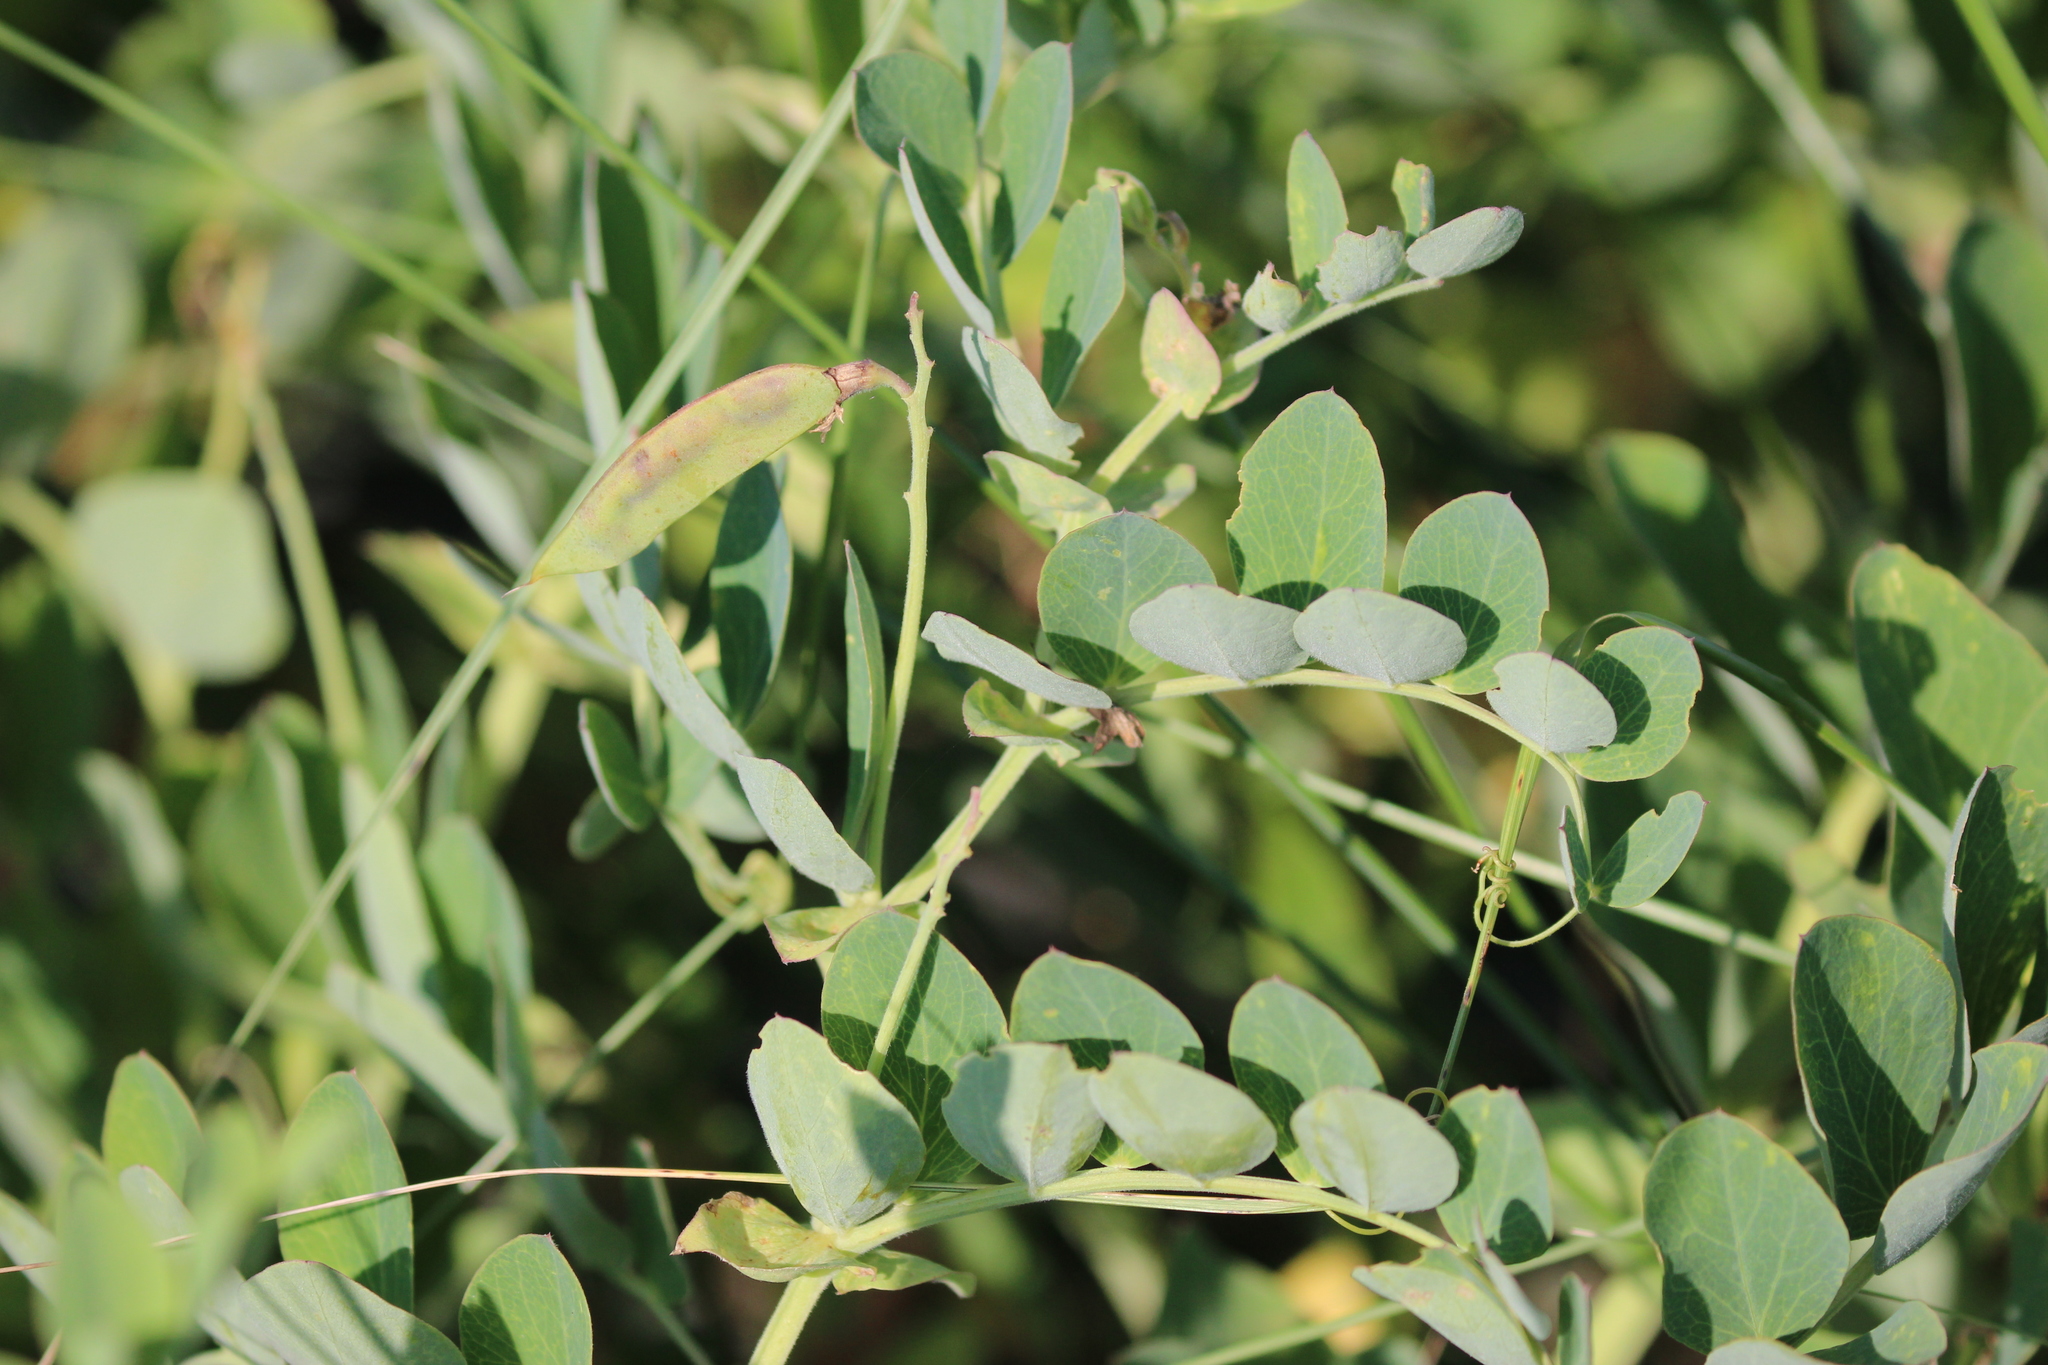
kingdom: Plantae
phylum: Tracheophyta
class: Magnoliopsida
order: Fabales
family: Fabaceae
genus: Lathyrus
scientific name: Lathyrus japonicus
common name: Sea pea
